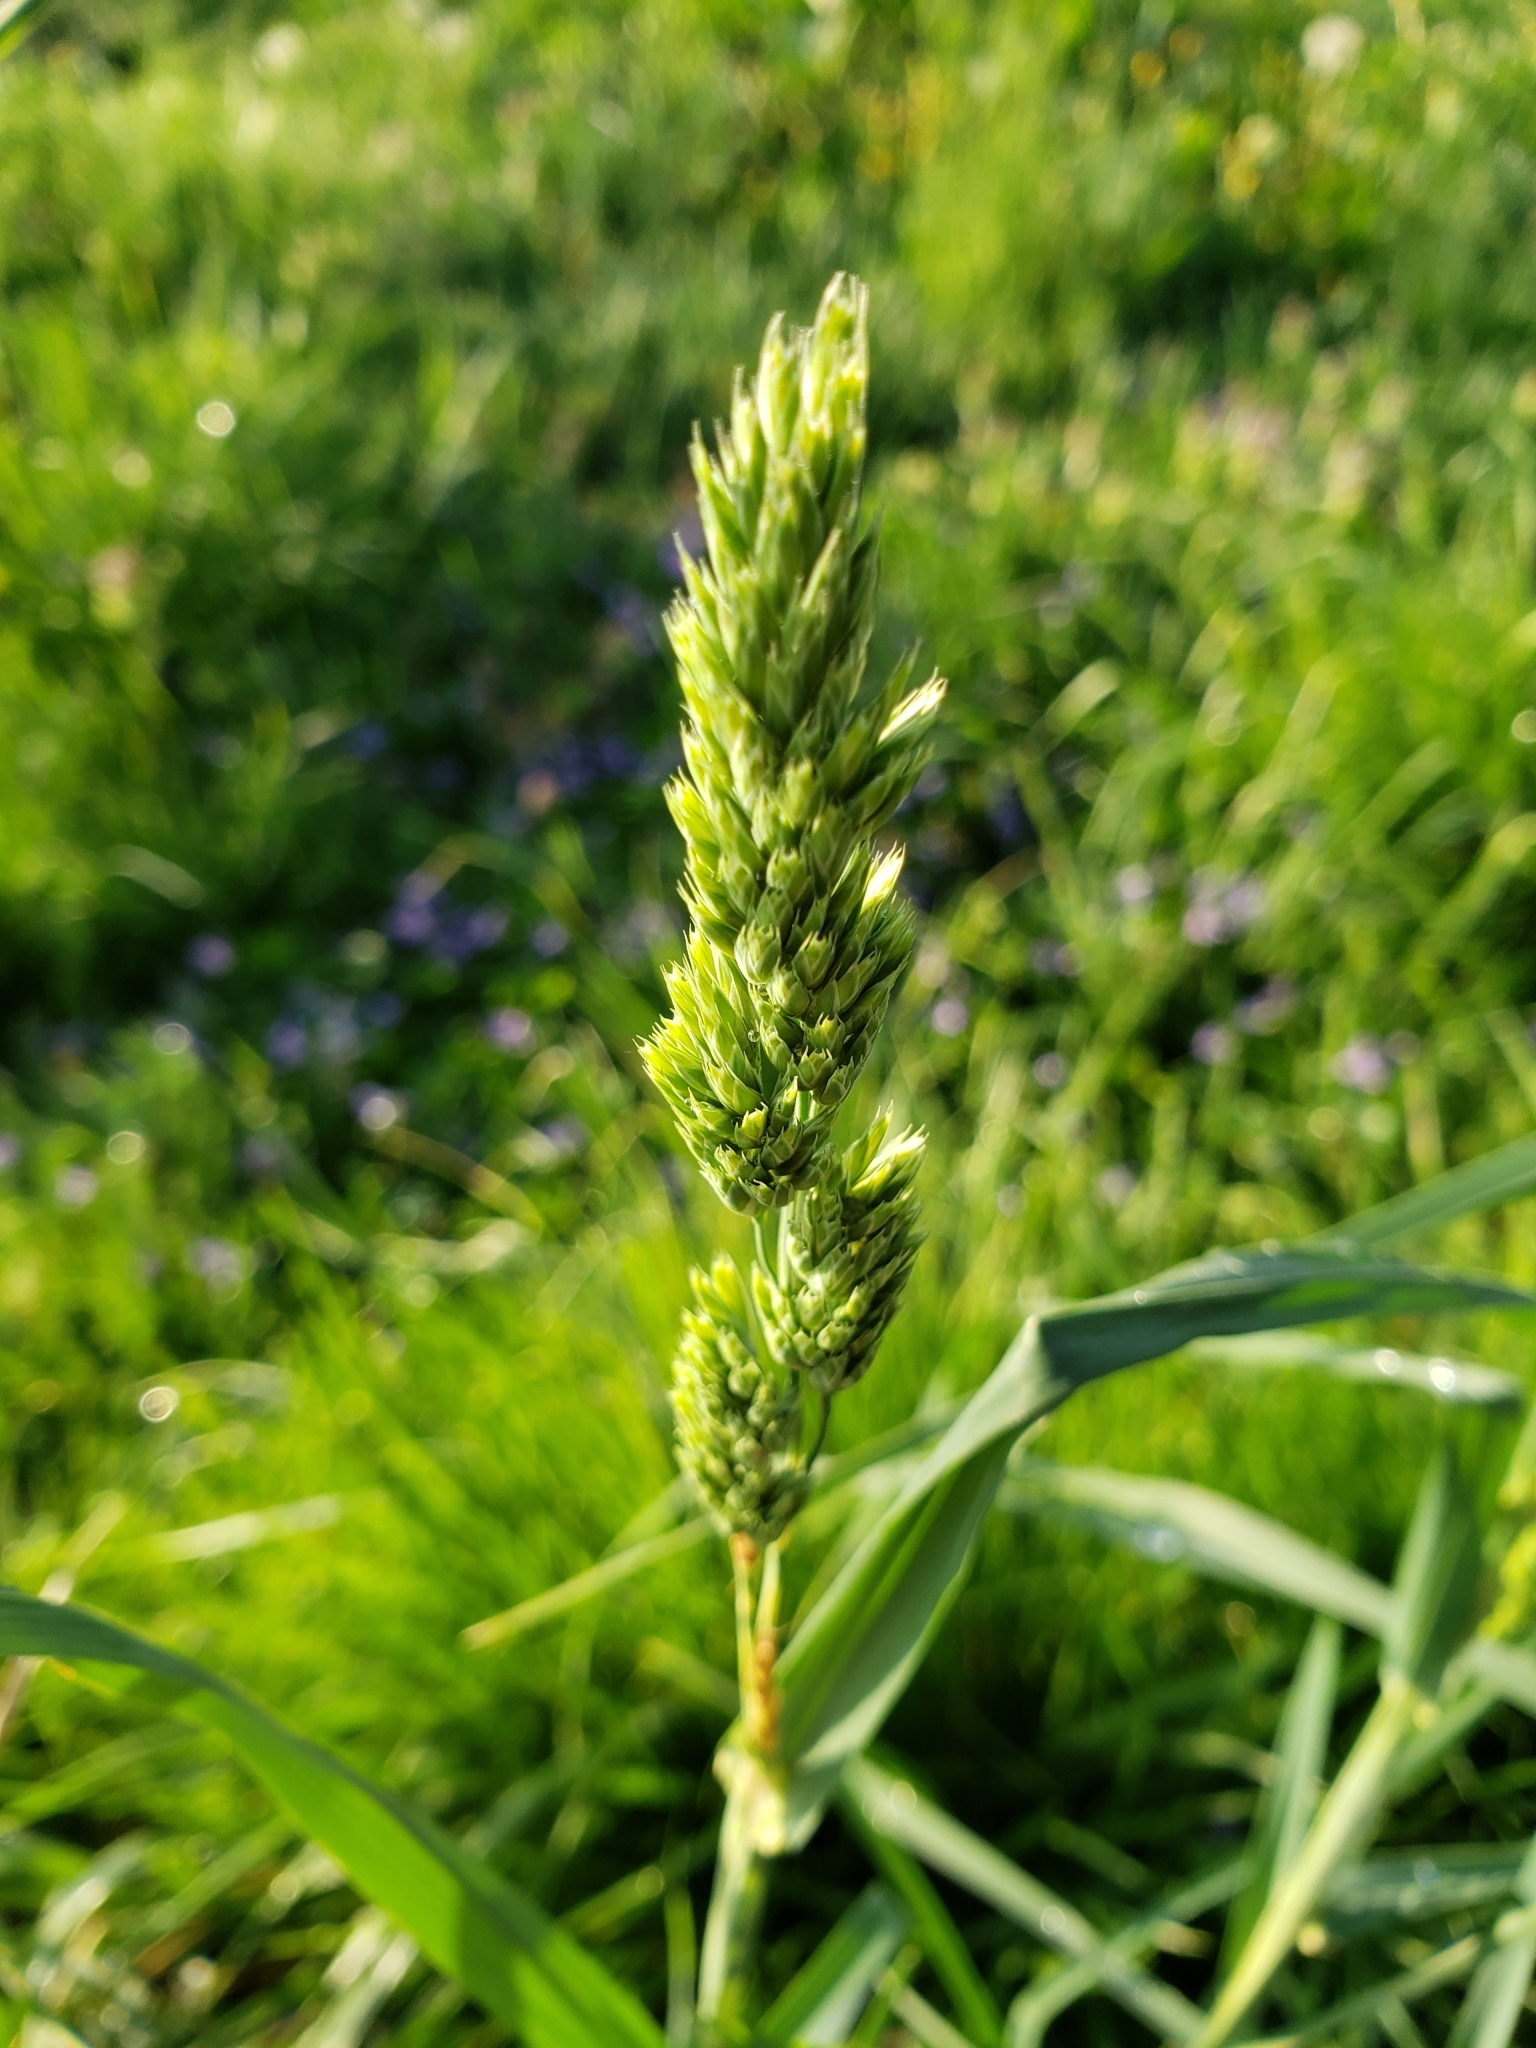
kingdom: Plantae
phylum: Tracheophyta
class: Liliopsida
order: Poales
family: Poaceae
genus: Dactylis
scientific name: Dactylis glomerata
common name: Orchardgrass
